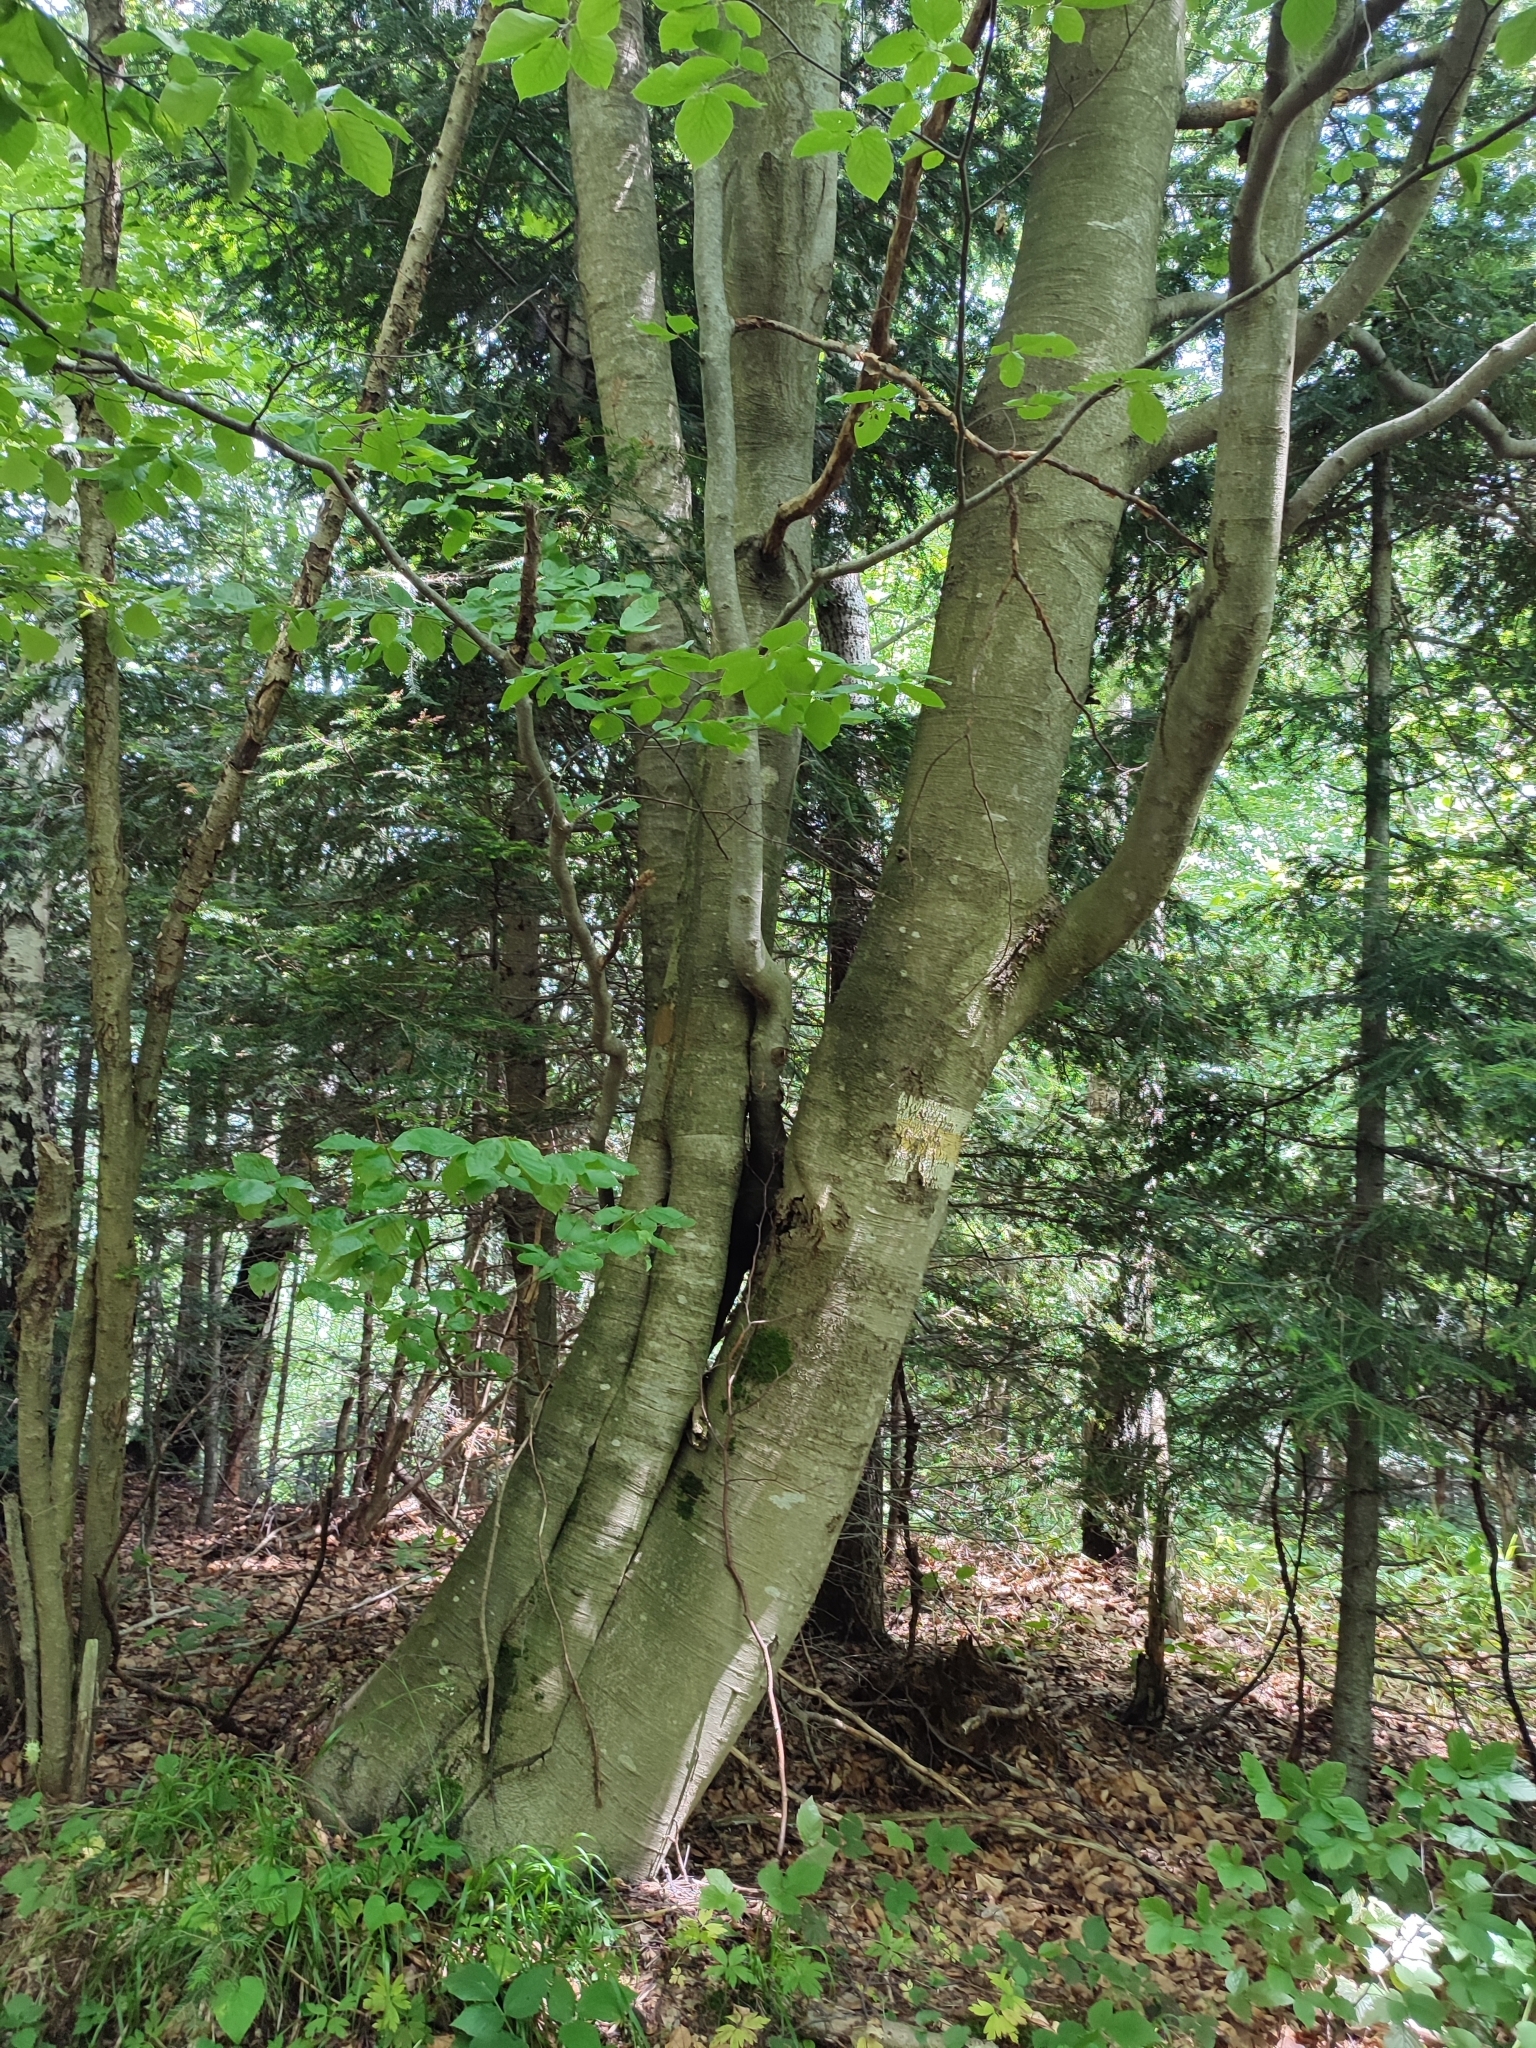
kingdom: Plantae
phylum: Tracheophyta
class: Magnoliopsida
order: Fagales
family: Fagaceae
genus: Fagus
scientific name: Fagus sylvatica
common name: Beech
